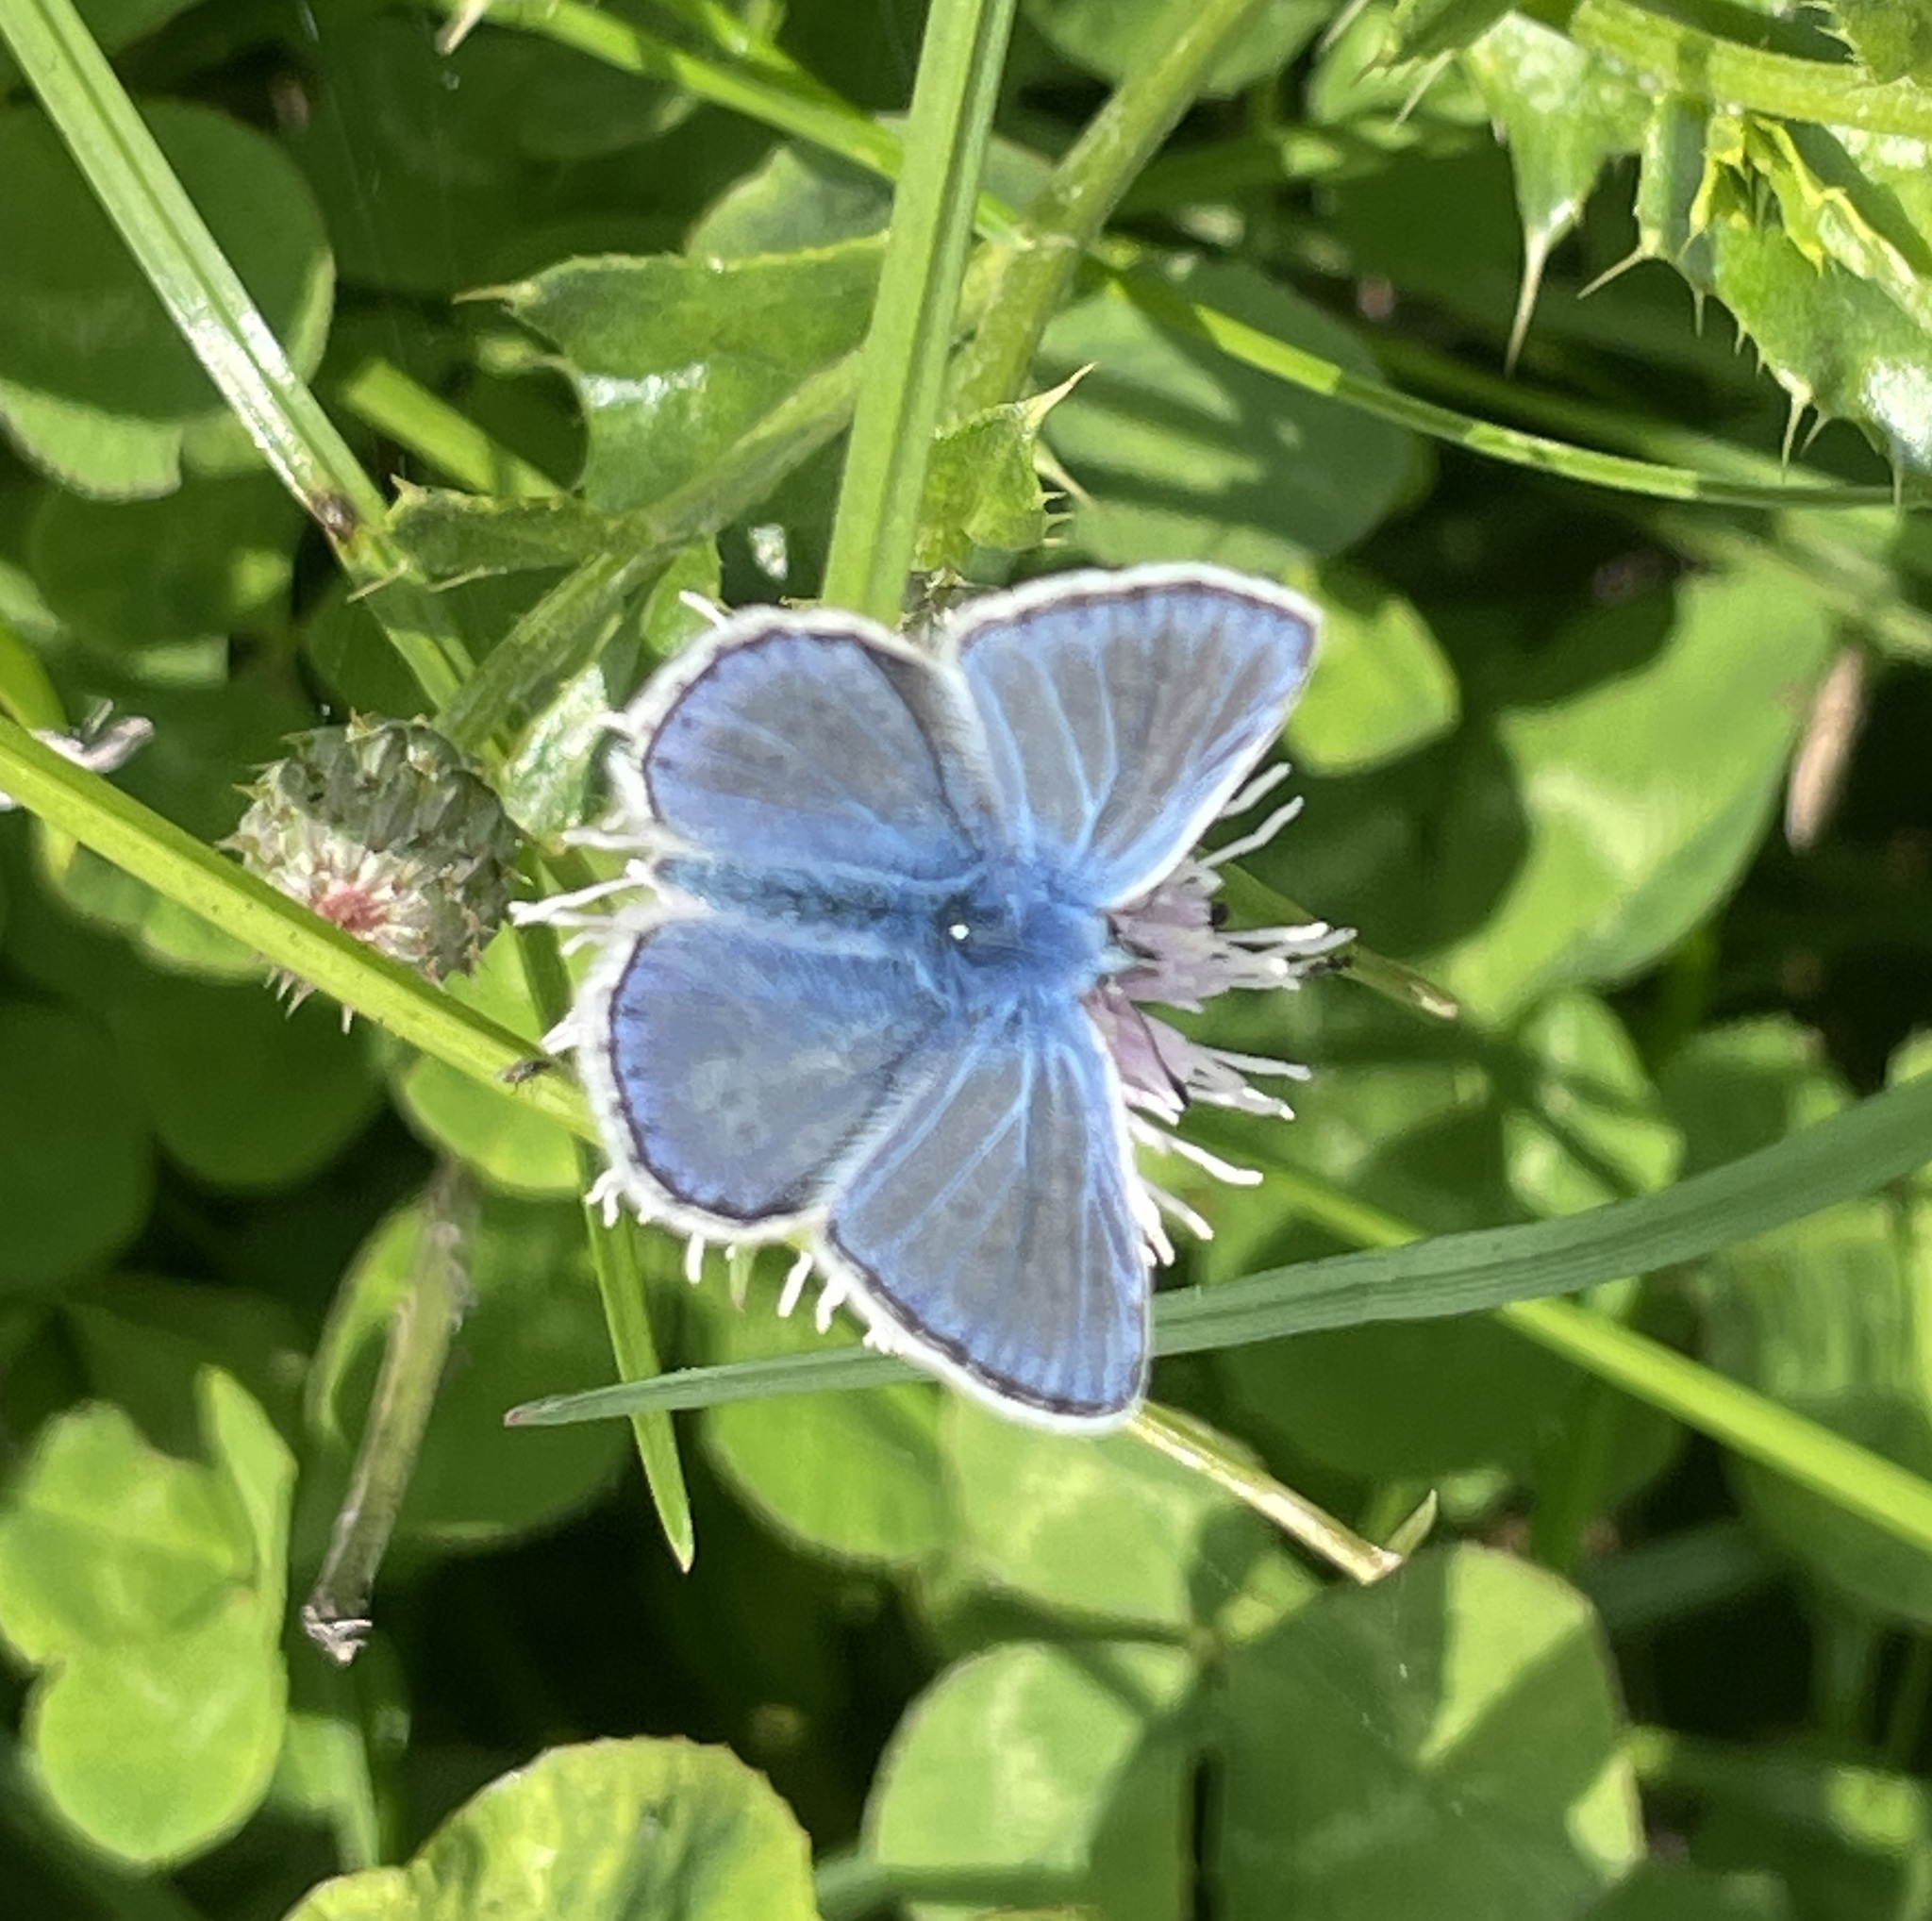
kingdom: Animalia
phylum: Arthropoda
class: Insecta
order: Lepidoptera
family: Lycaenidae
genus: Polyommatus
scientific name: Polyommatus icarus
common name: Common blue
